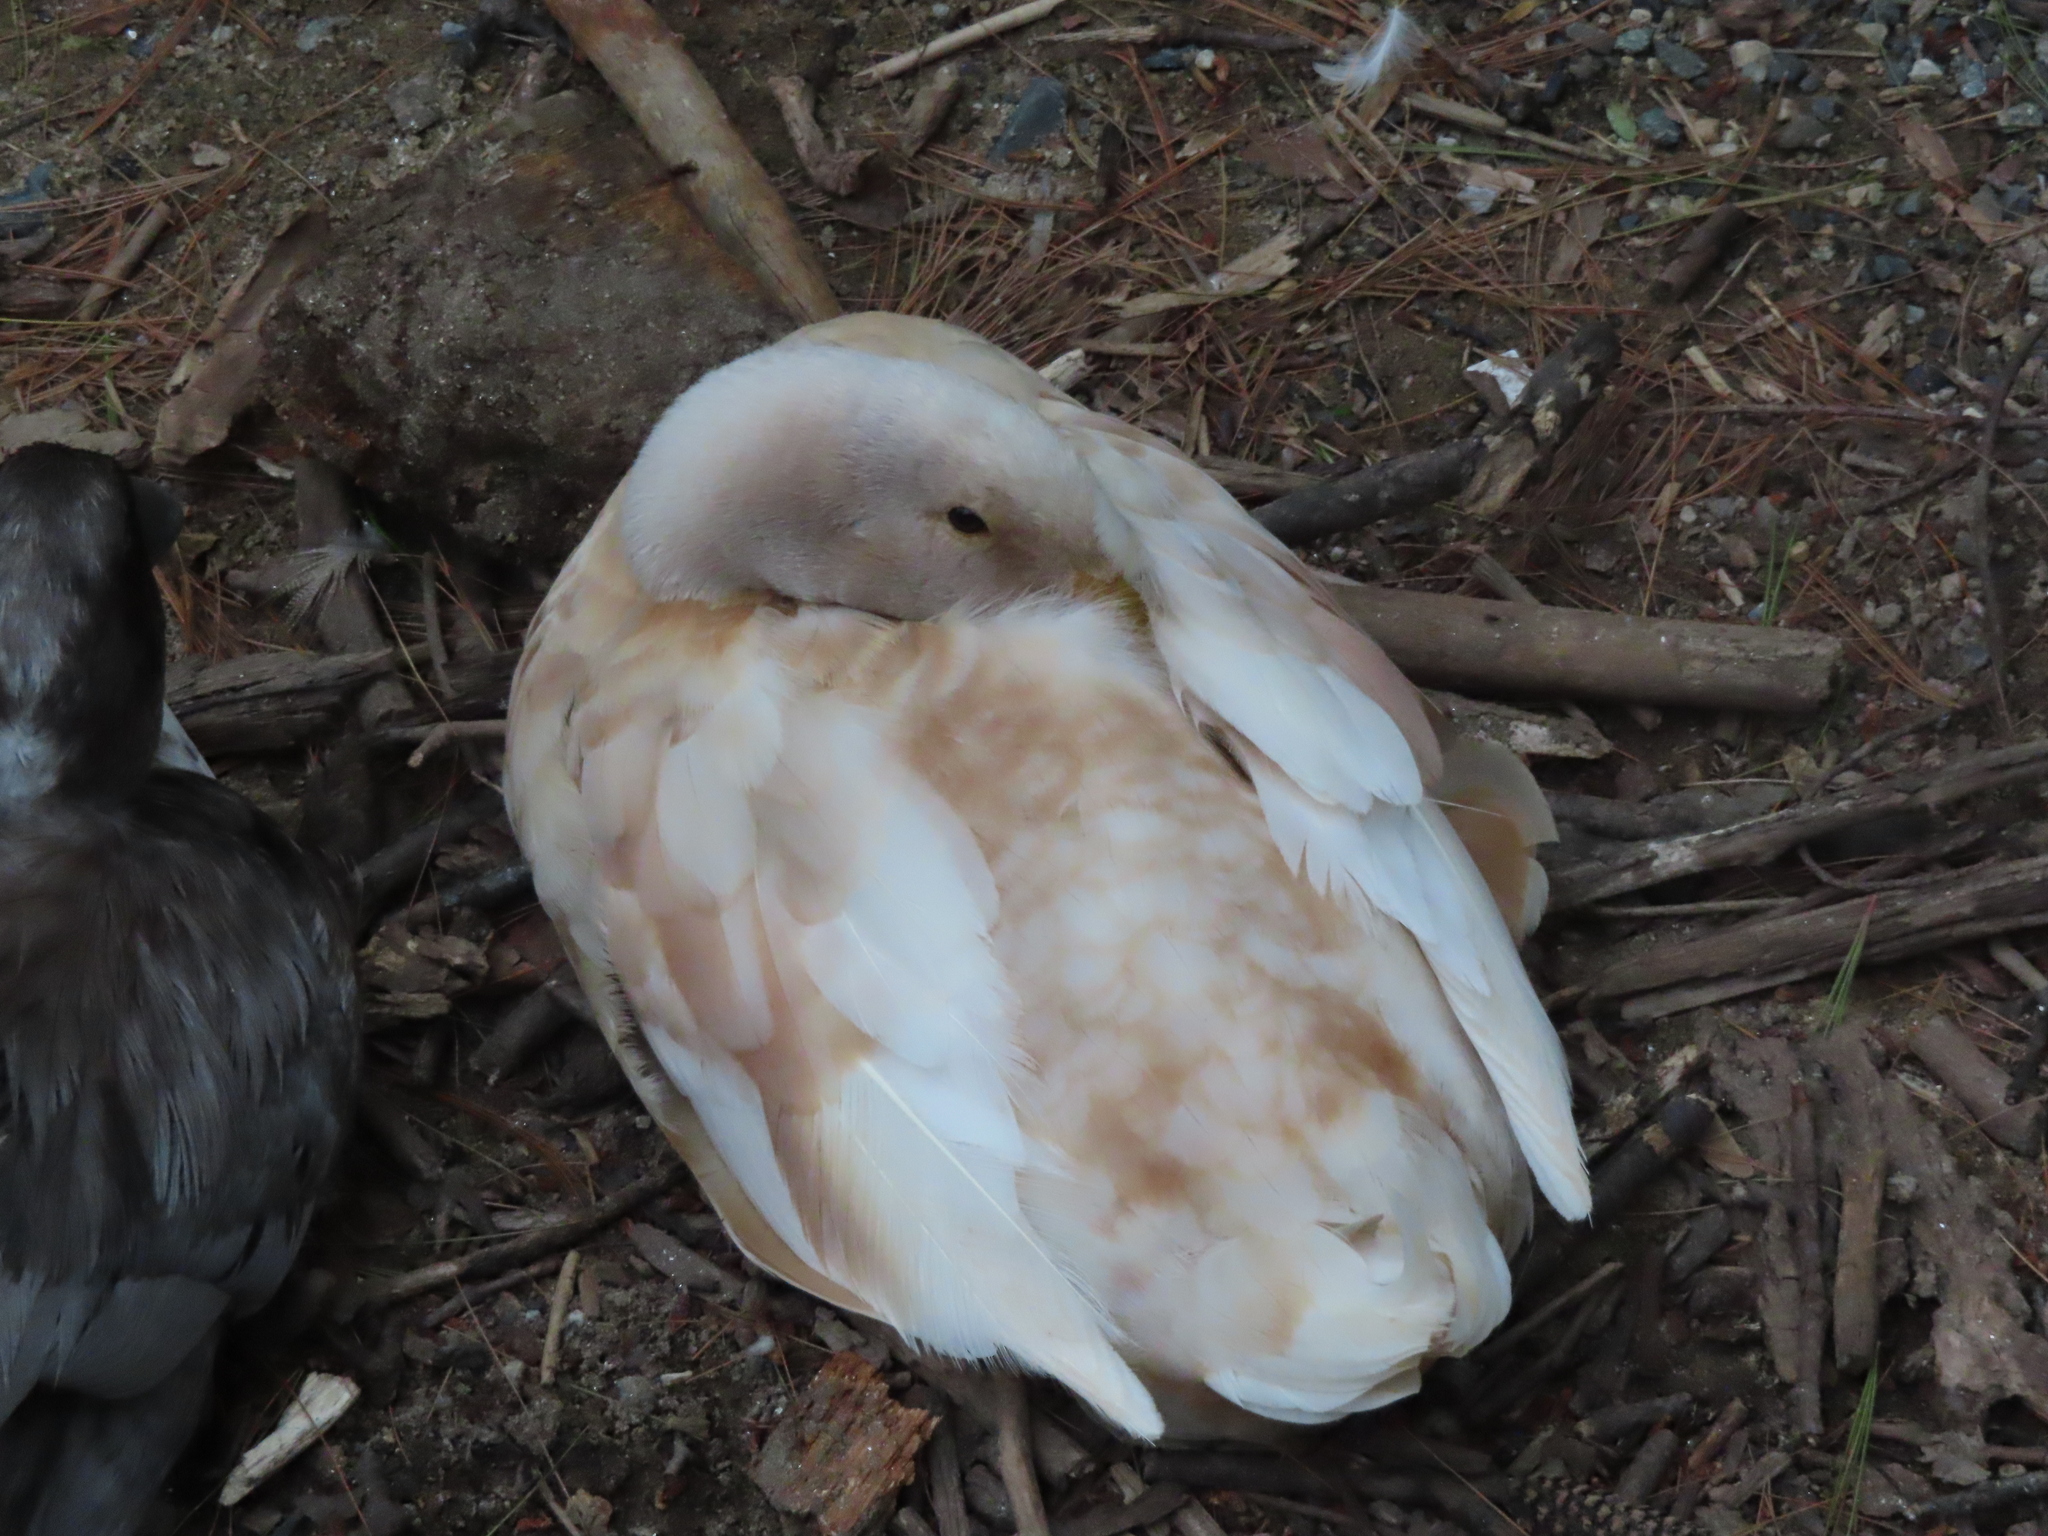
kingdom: Animalia
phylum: Chordata
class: Aves
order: Anseriformes
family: Anatidae
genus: Anas
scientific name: Anas platyrhynchos
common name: Mallard
